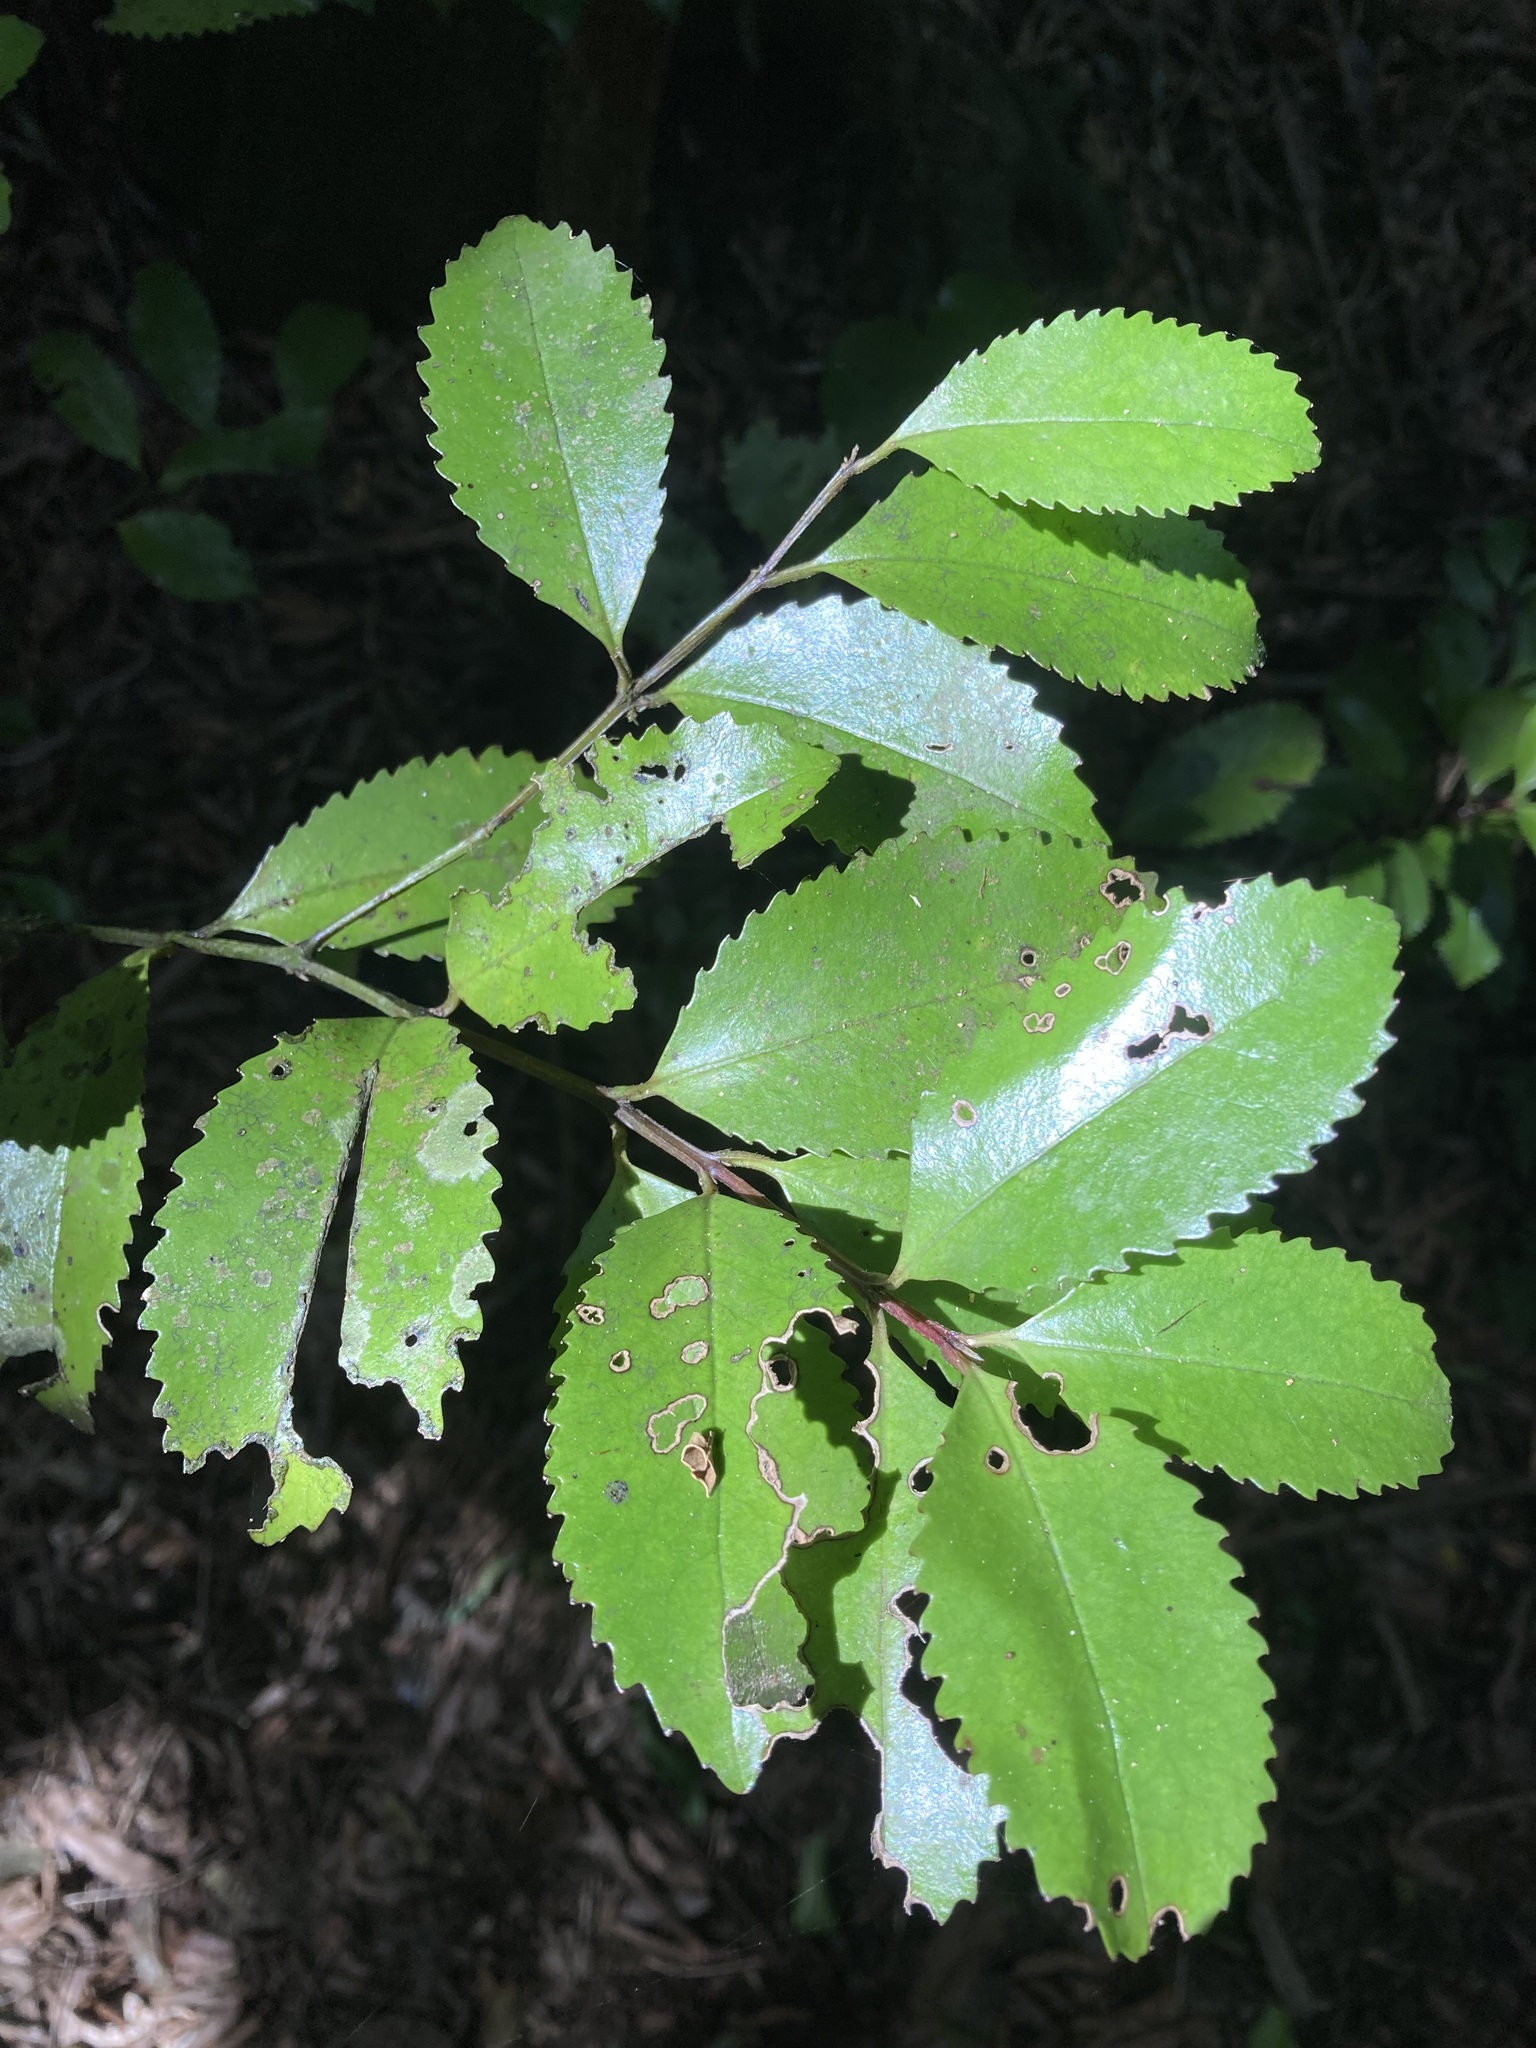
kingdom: Plantae
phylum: Tracheophyta
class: Magnoliopsida
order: Laurales
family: Atherospermataceae
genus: Laurelia
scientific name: Laurelia novae-zelandiae
